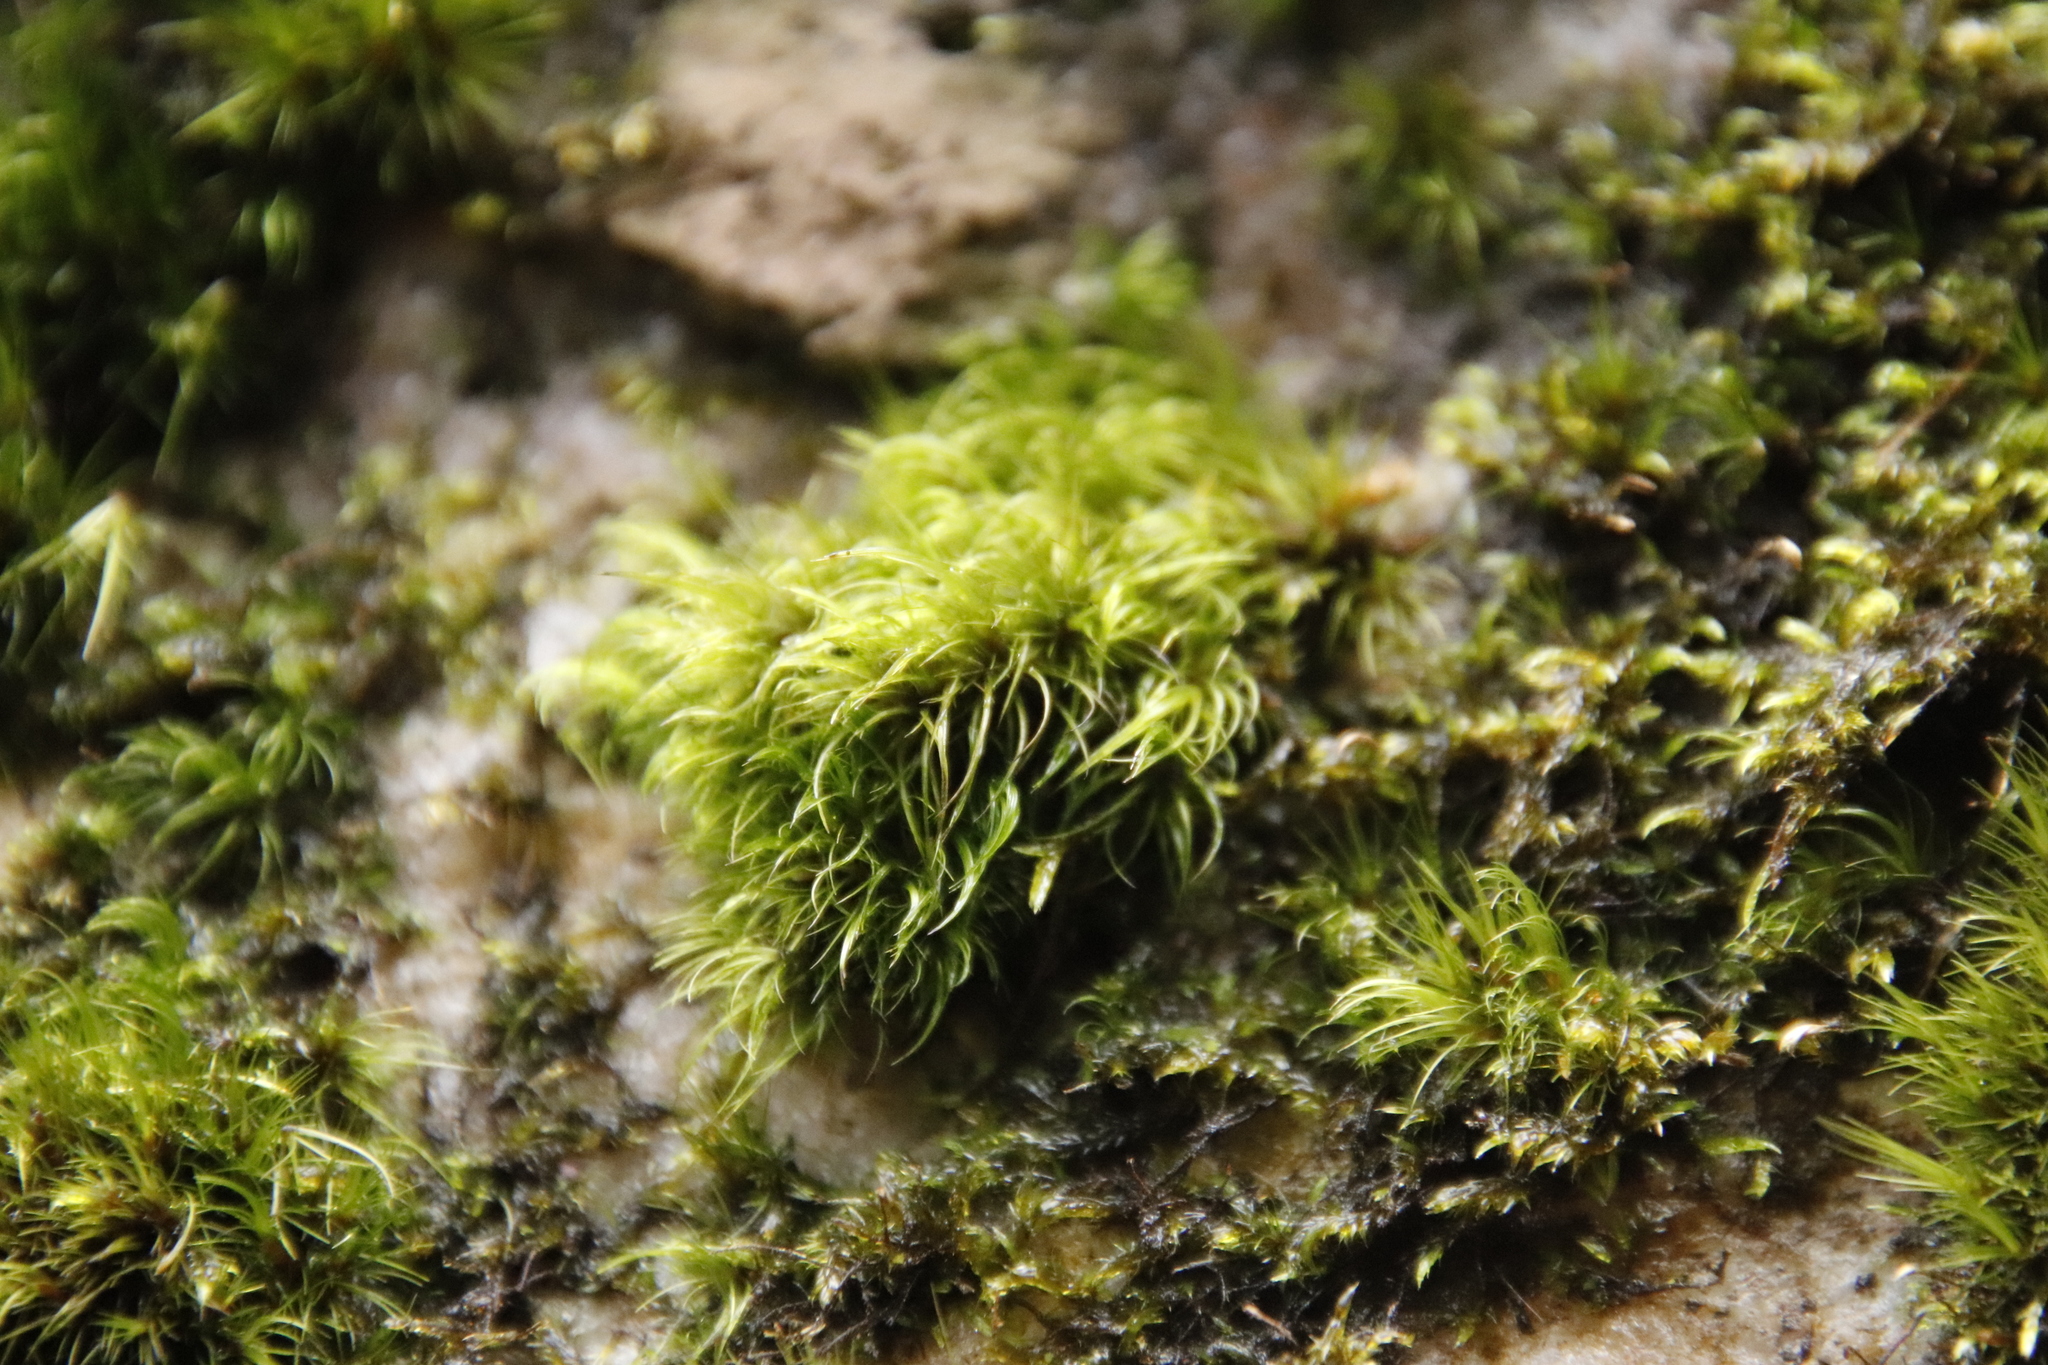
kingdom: Plantae
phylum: Bryophyta
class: Bryopsida
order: Dicranales
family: Dicranaceae
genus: Leucoloma
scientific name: Leucoloma sprengelianum
